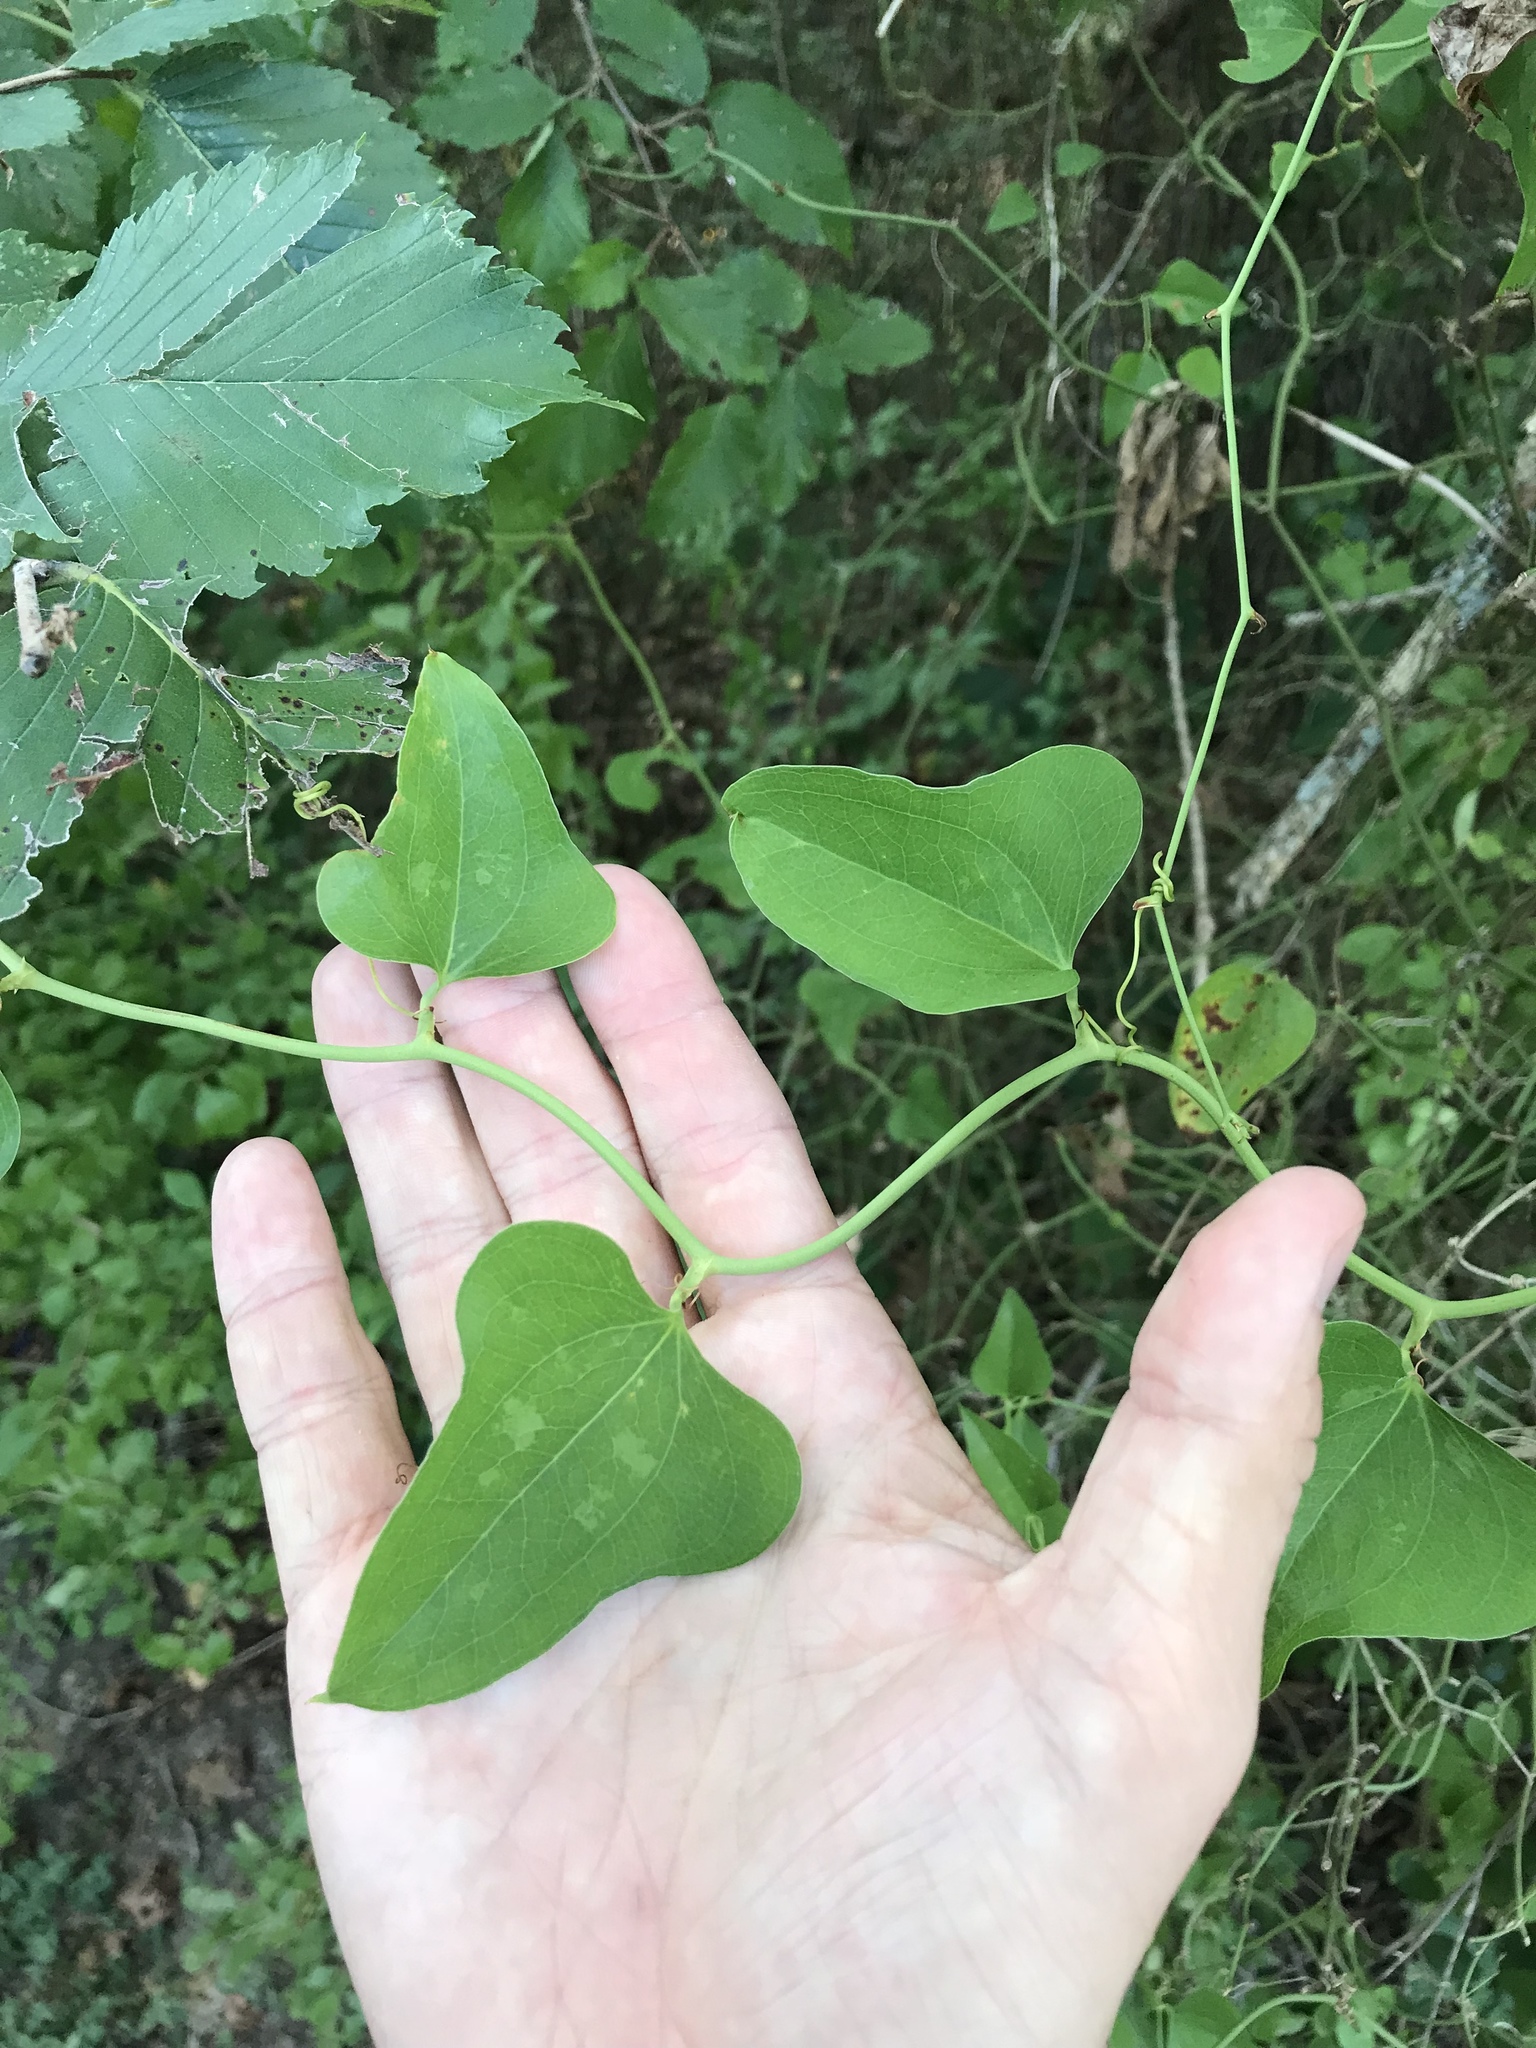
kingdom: Plantae
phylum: Tracheophyta
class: Liliopsida
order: Liliales
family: Smilacaceae
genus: Smilax
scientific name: Smilax bona-nox
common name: Catbrier
